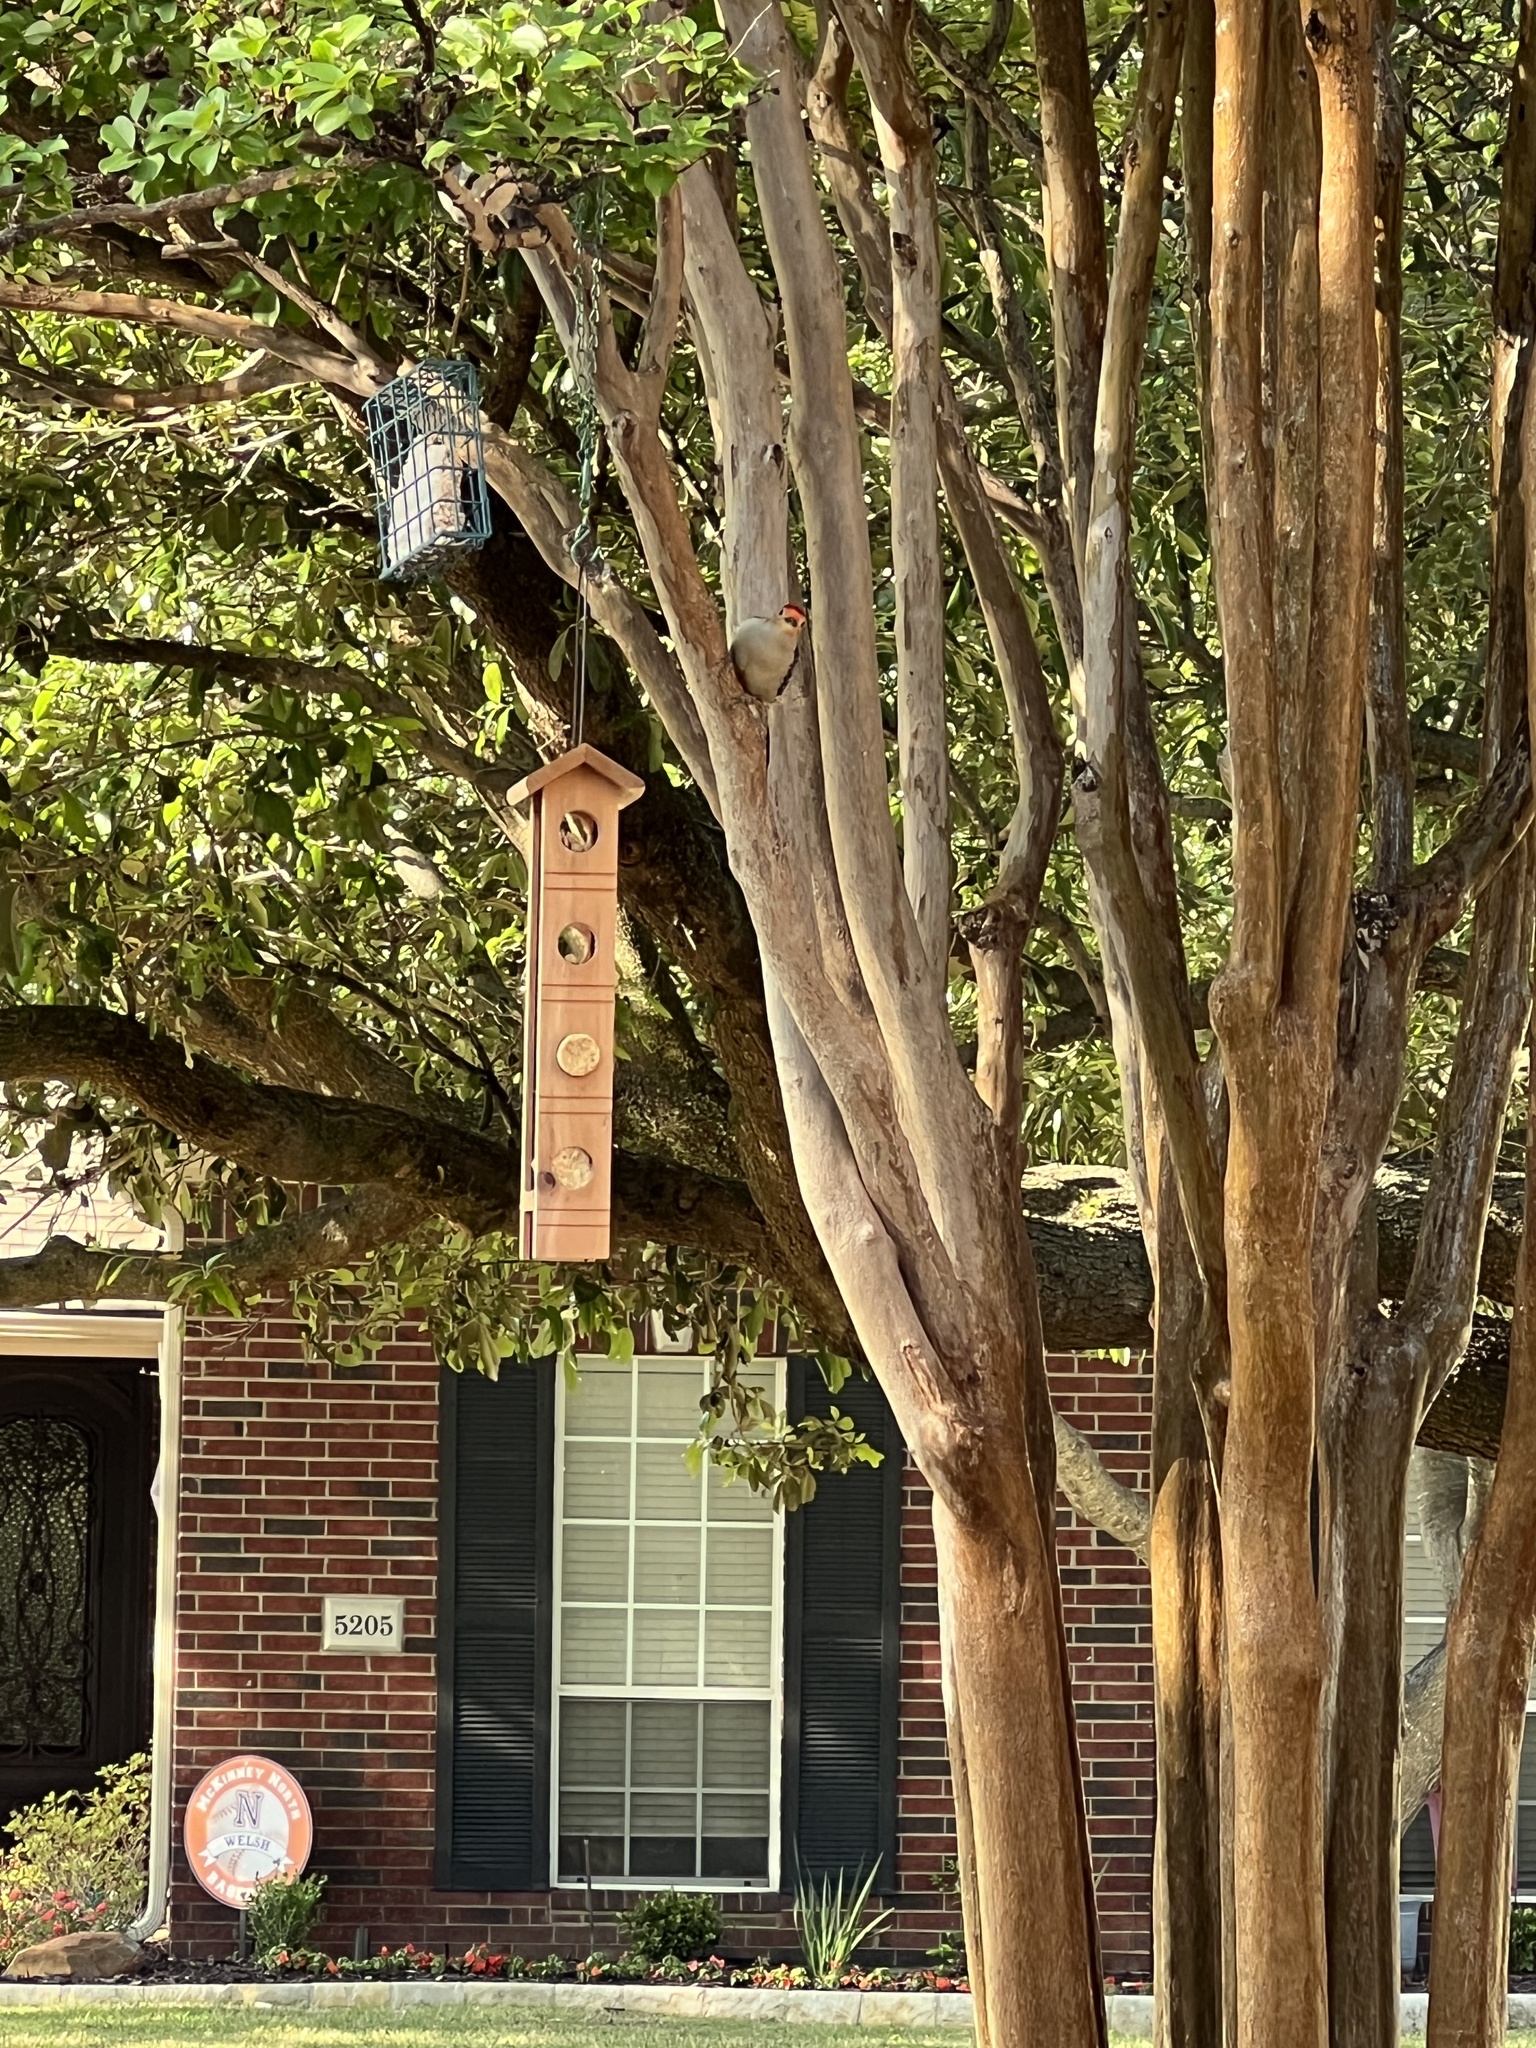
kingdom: Animalia
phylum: Chordata
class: Aves
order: Piciformes
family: Picidae
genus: Melanerpes
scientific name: Melanerpes carolinus
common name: Red-bellied woodpecker
